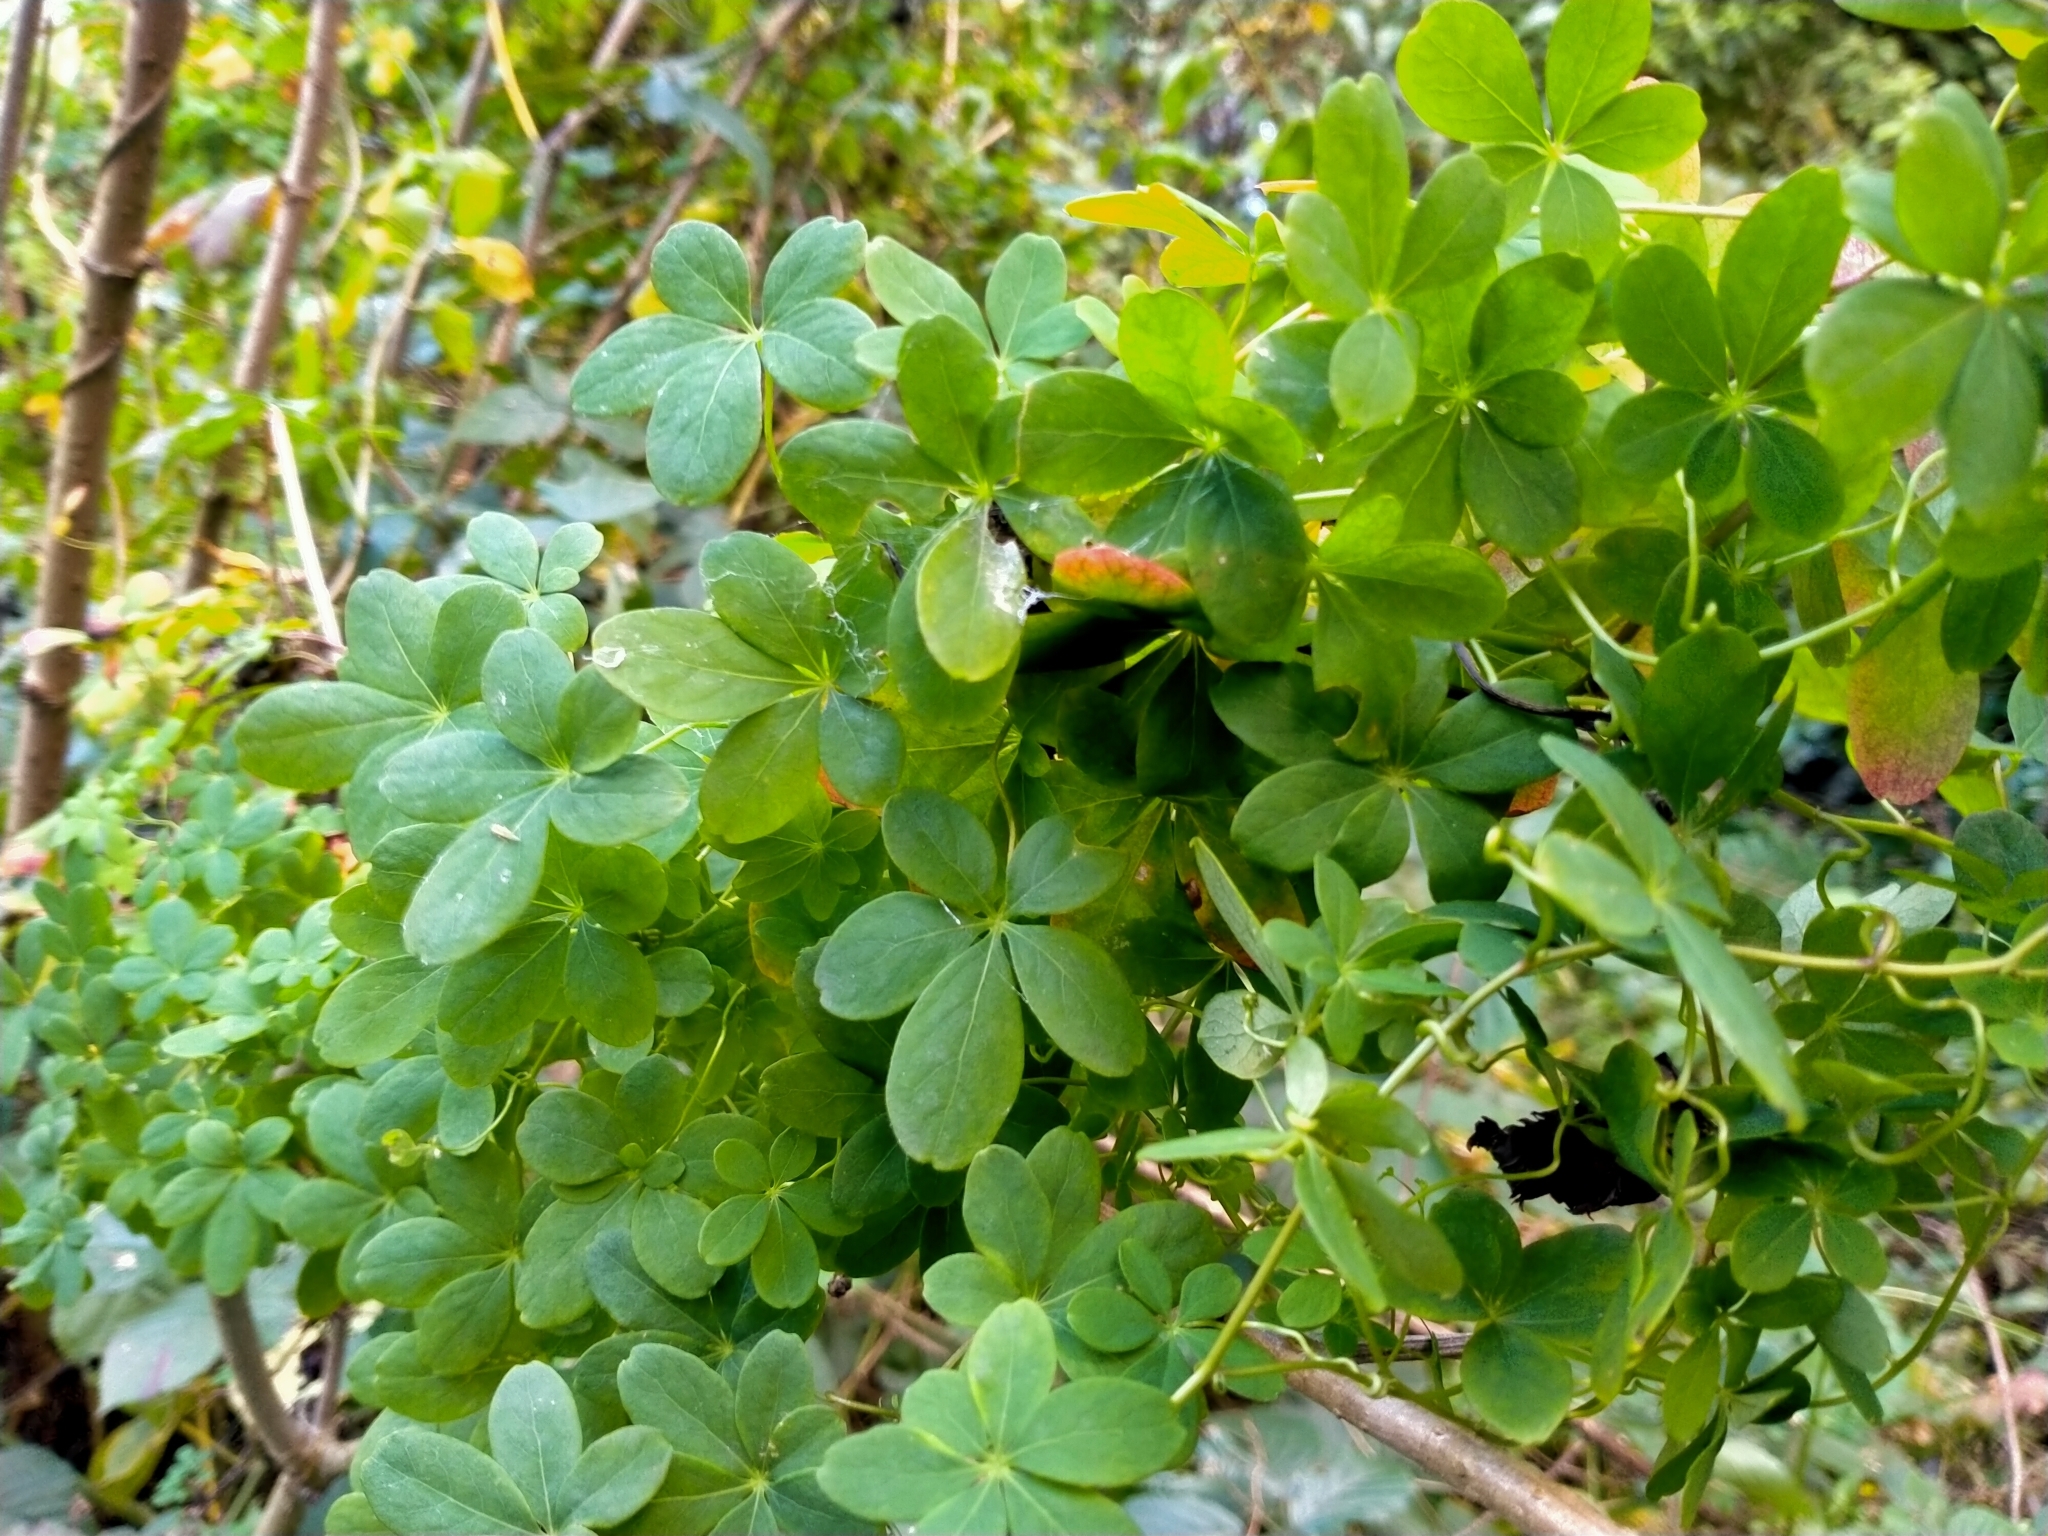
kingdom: Plantae
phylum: Tracheophyta
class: Magnoliopsida
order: Brassicales
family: Tropaeolaceae
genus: Tropaeolum
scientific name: Tropaeolum speciosum
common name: Flame nasturtium
